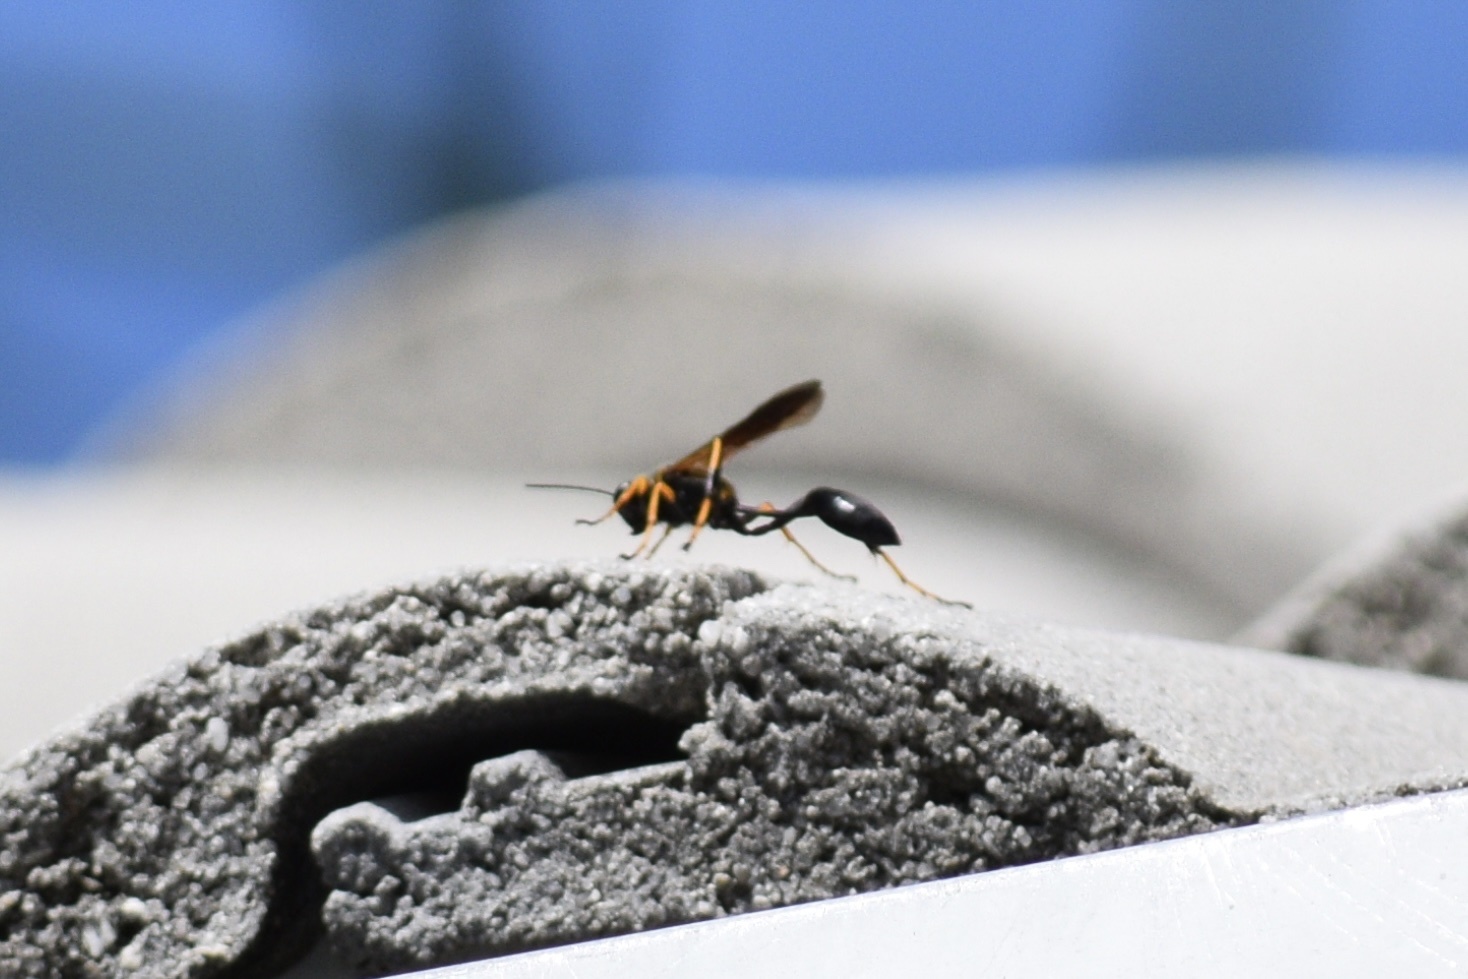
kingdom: Animalia
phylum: Arthropoda
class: Insecta
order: Hymenoptera
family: Sphecidae
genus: Sceliphron
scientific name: Sceliphron caementarium
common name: Mud dauber
